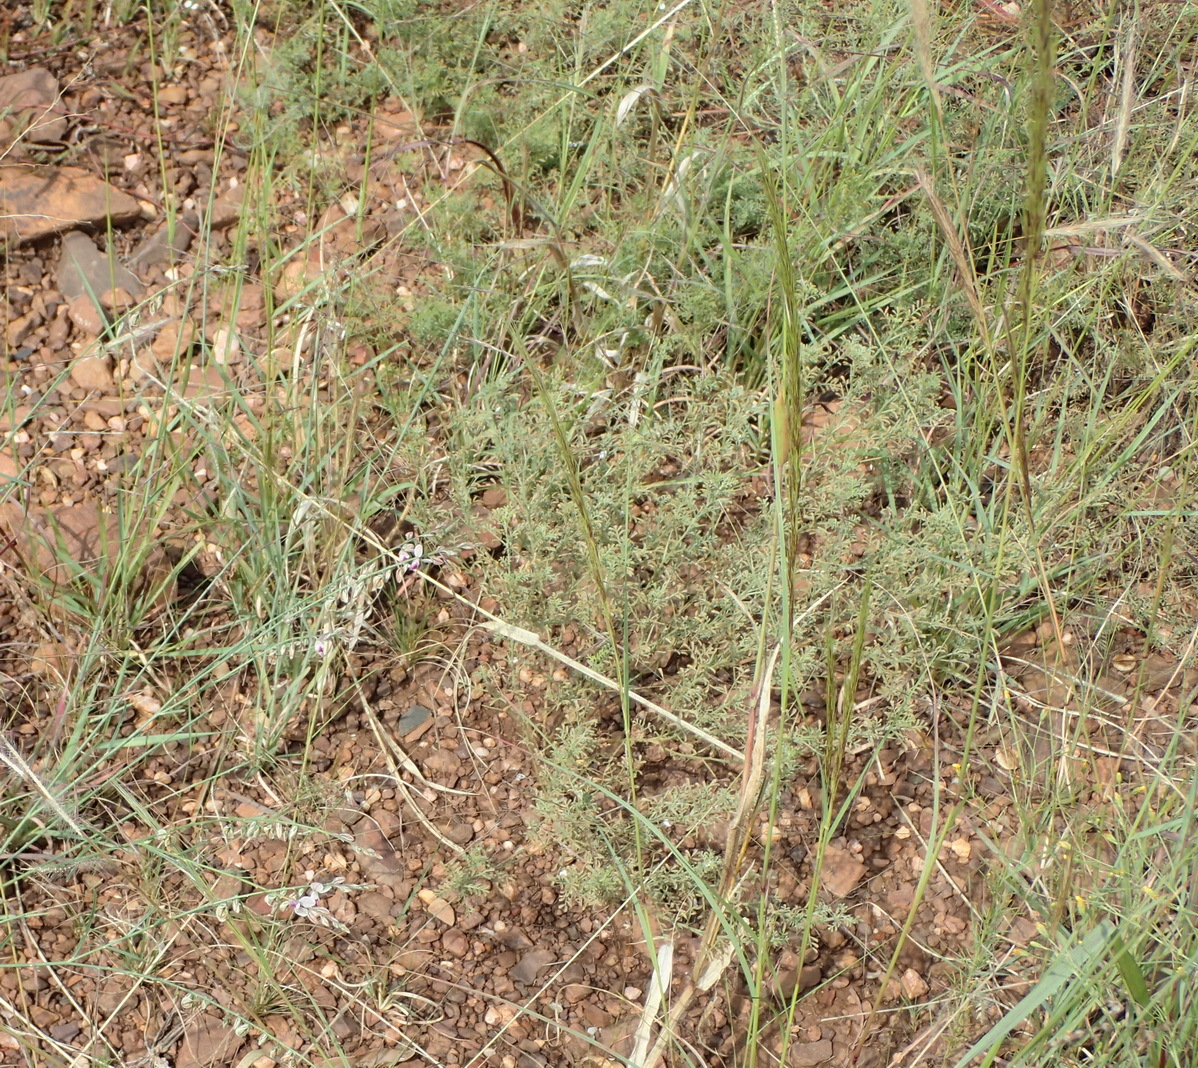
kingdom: Plantae
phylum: Tracheophyta
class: Magnoliopsida
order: Fabales
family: Polygalaceae
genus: Polygala
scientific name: Polygala hottentotta
